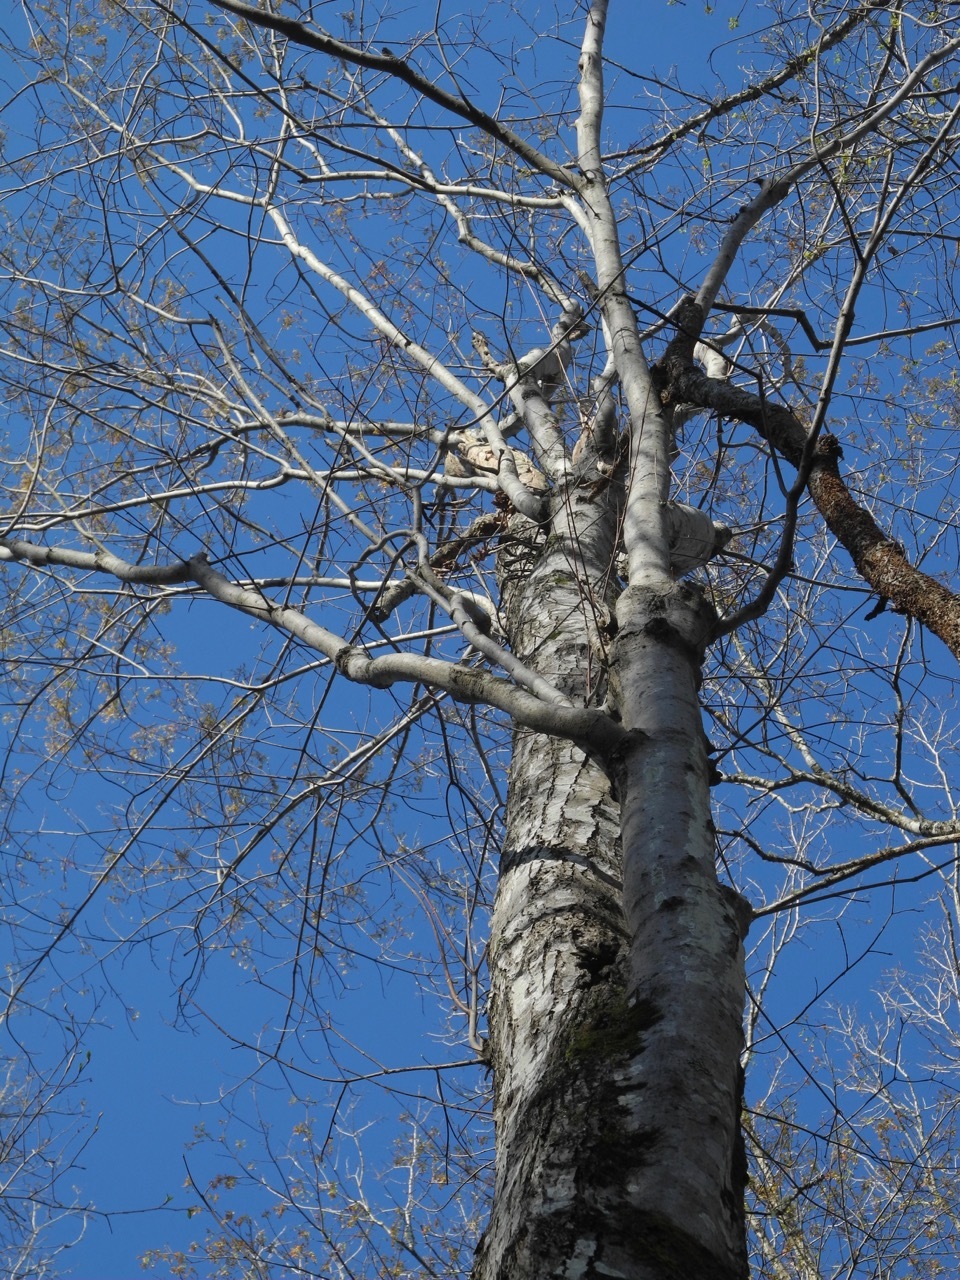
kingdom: Plantae
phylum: Tracheophyta
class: Magnoliopsida
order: Sapindales
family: Sapindaceae
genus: Acer
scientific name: Acer freemanii
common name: Freeman maple
